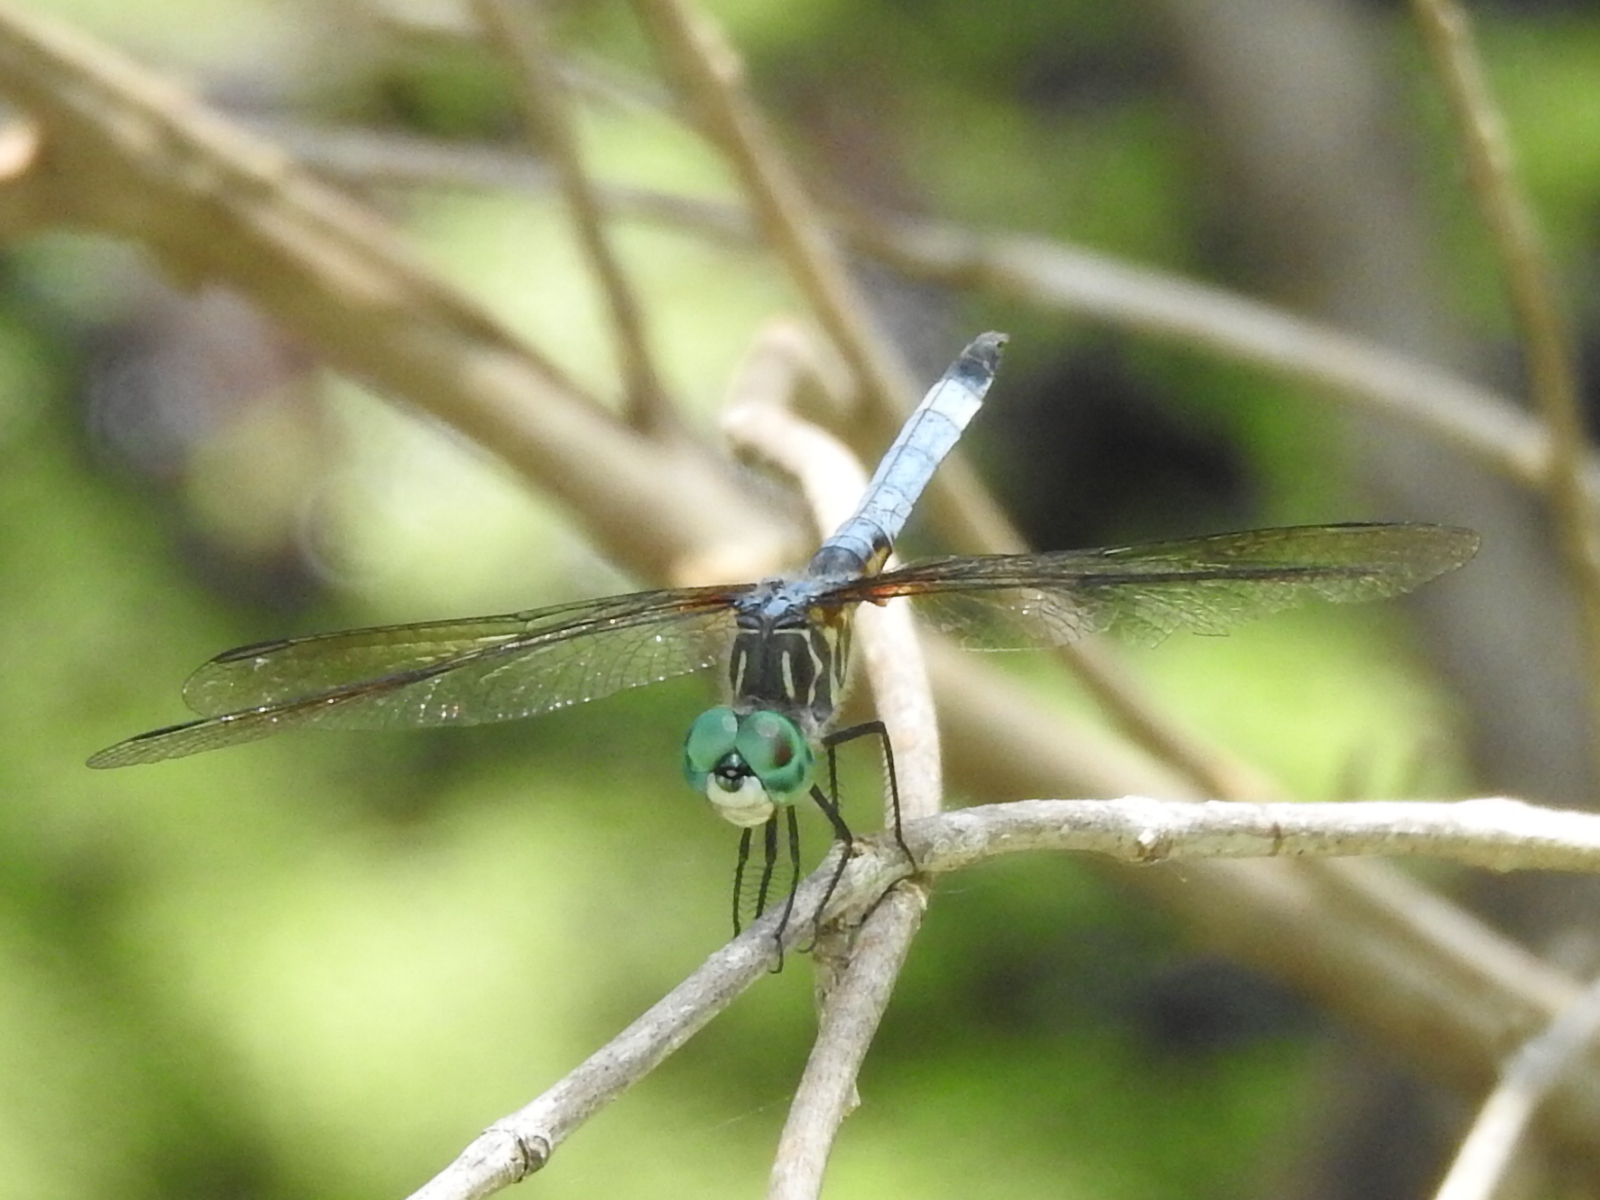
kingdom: Animalia
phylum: Arthropoda
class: Insecta
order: Odonata
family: Libellulidae
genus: Pachydiplax
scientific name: Pachydiplax longipennis
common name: Blue dasher
